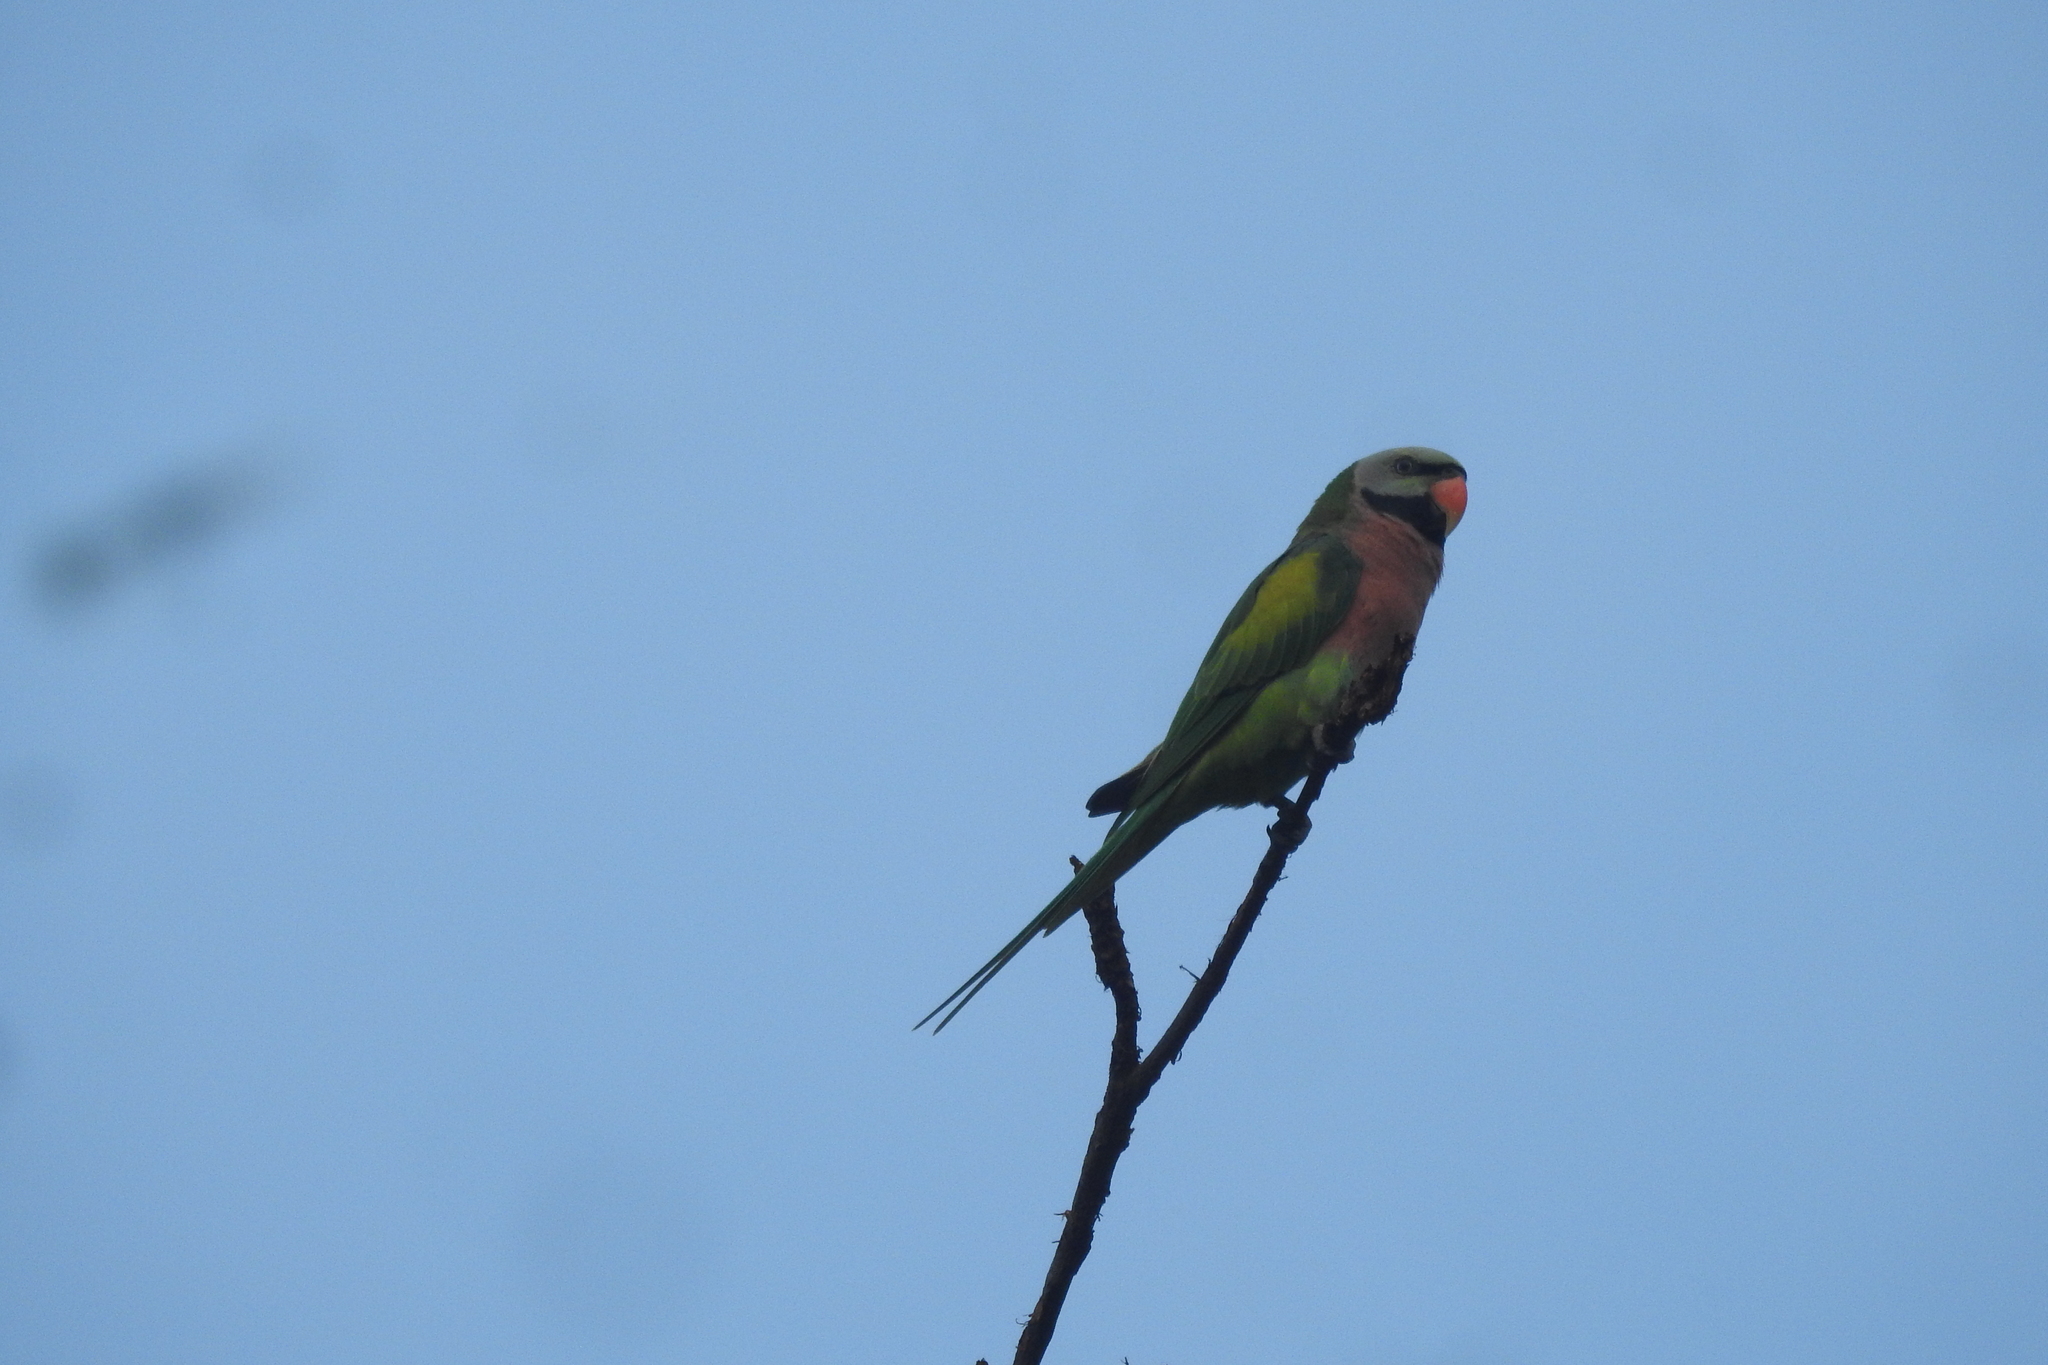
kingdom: Animalia
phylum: Chordata
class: Aves
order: Psittaciformes
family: Psittacidae
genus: Psittacula
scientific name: Psittacula alexandri
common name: Red-breasted parakeet
